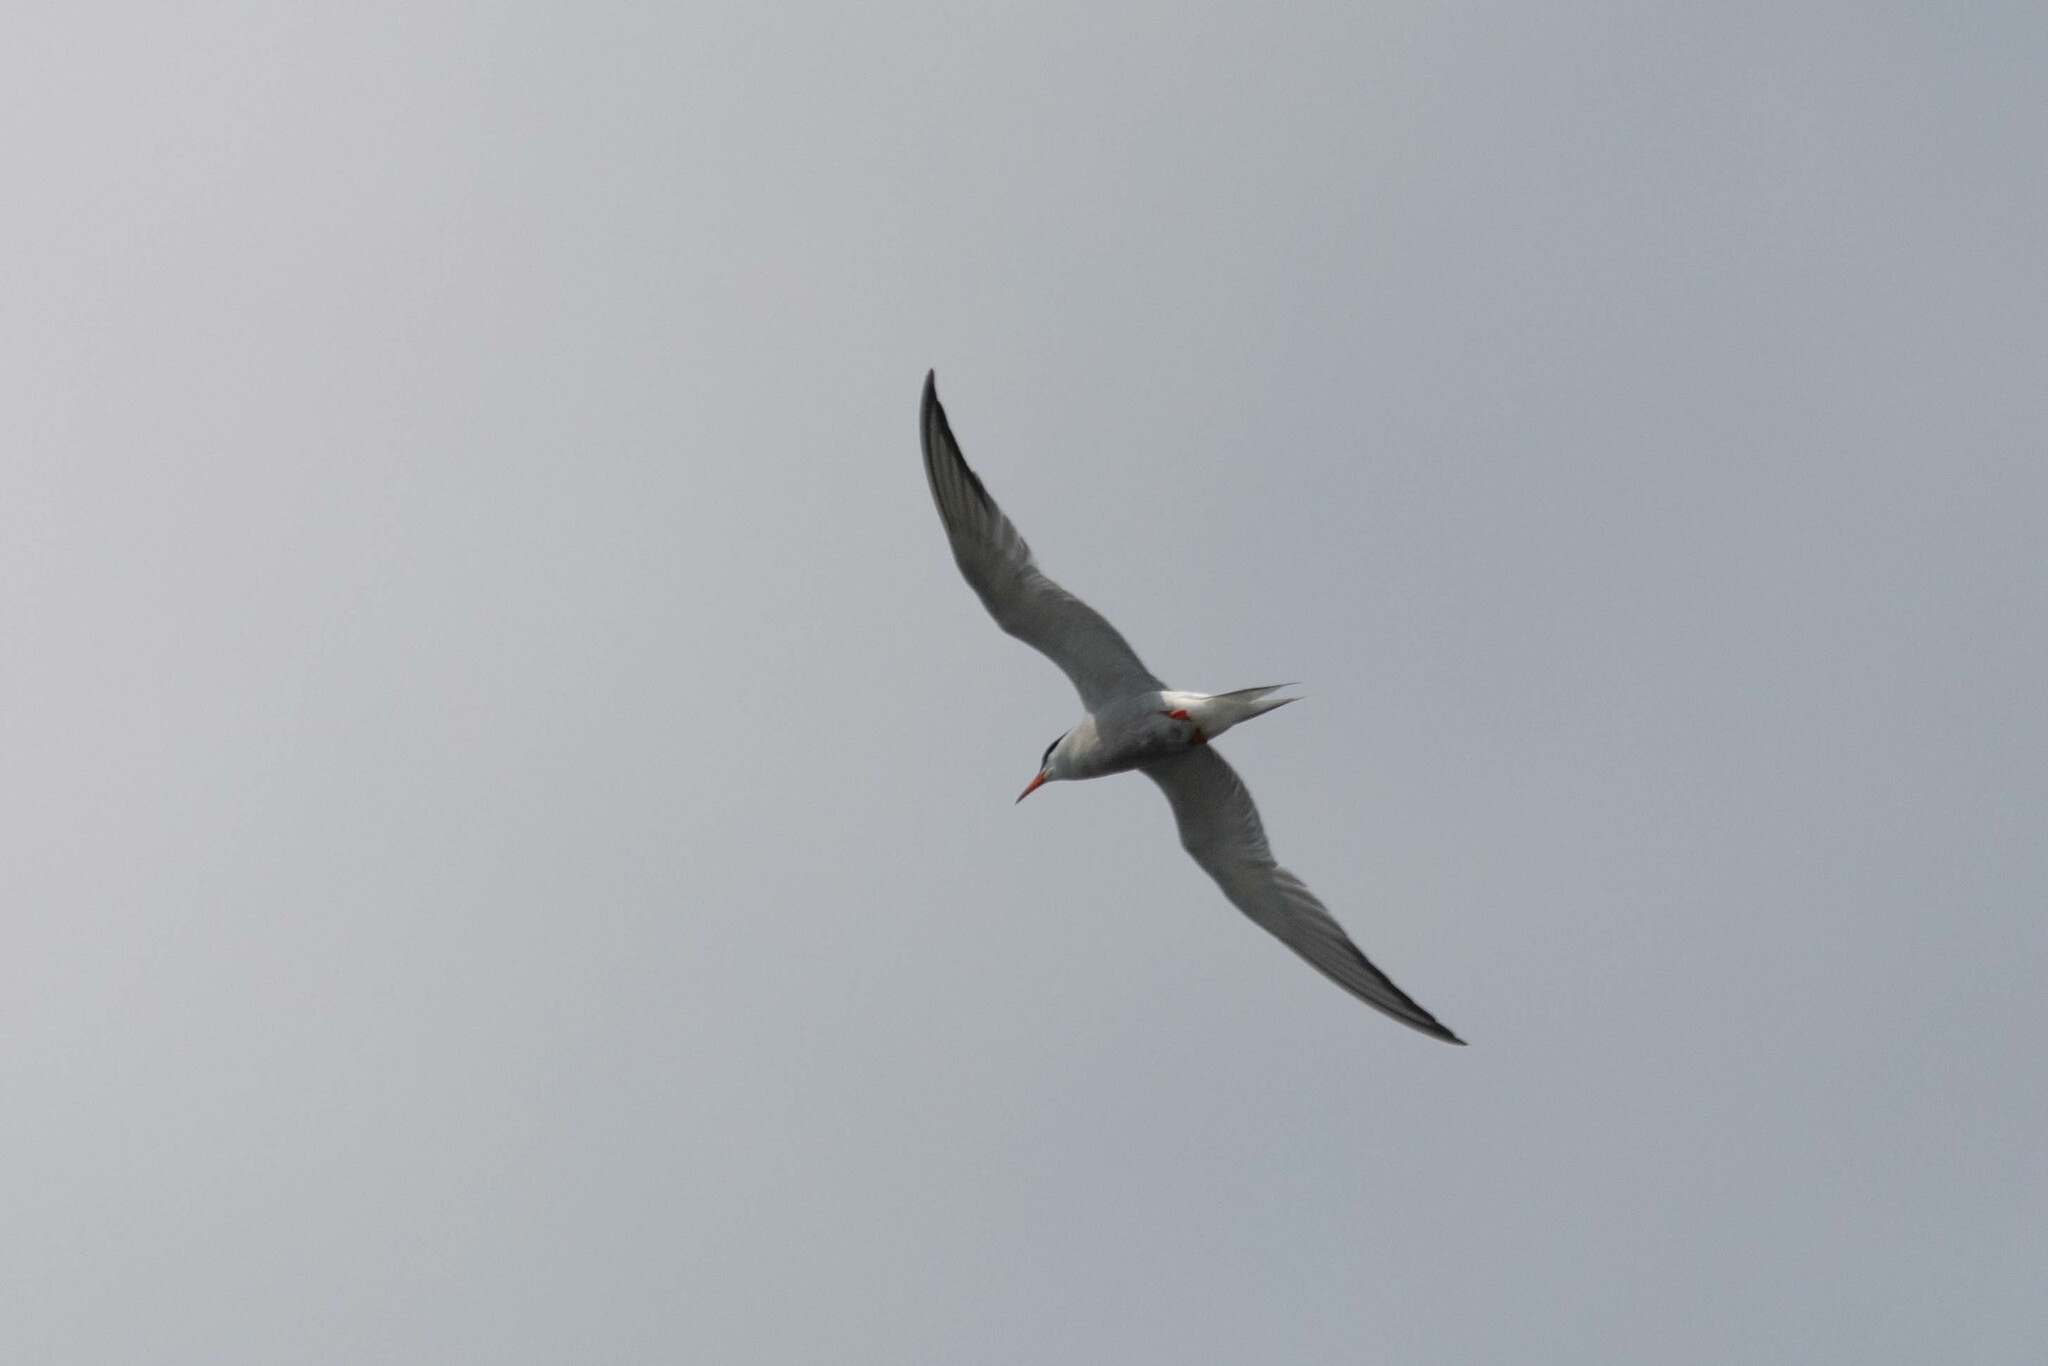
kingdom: Animalia
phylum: Chordata
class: Aves
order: Charadriiformes
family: Laridae
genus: Sterna
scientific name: Sterna hirundo
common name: Common tern
